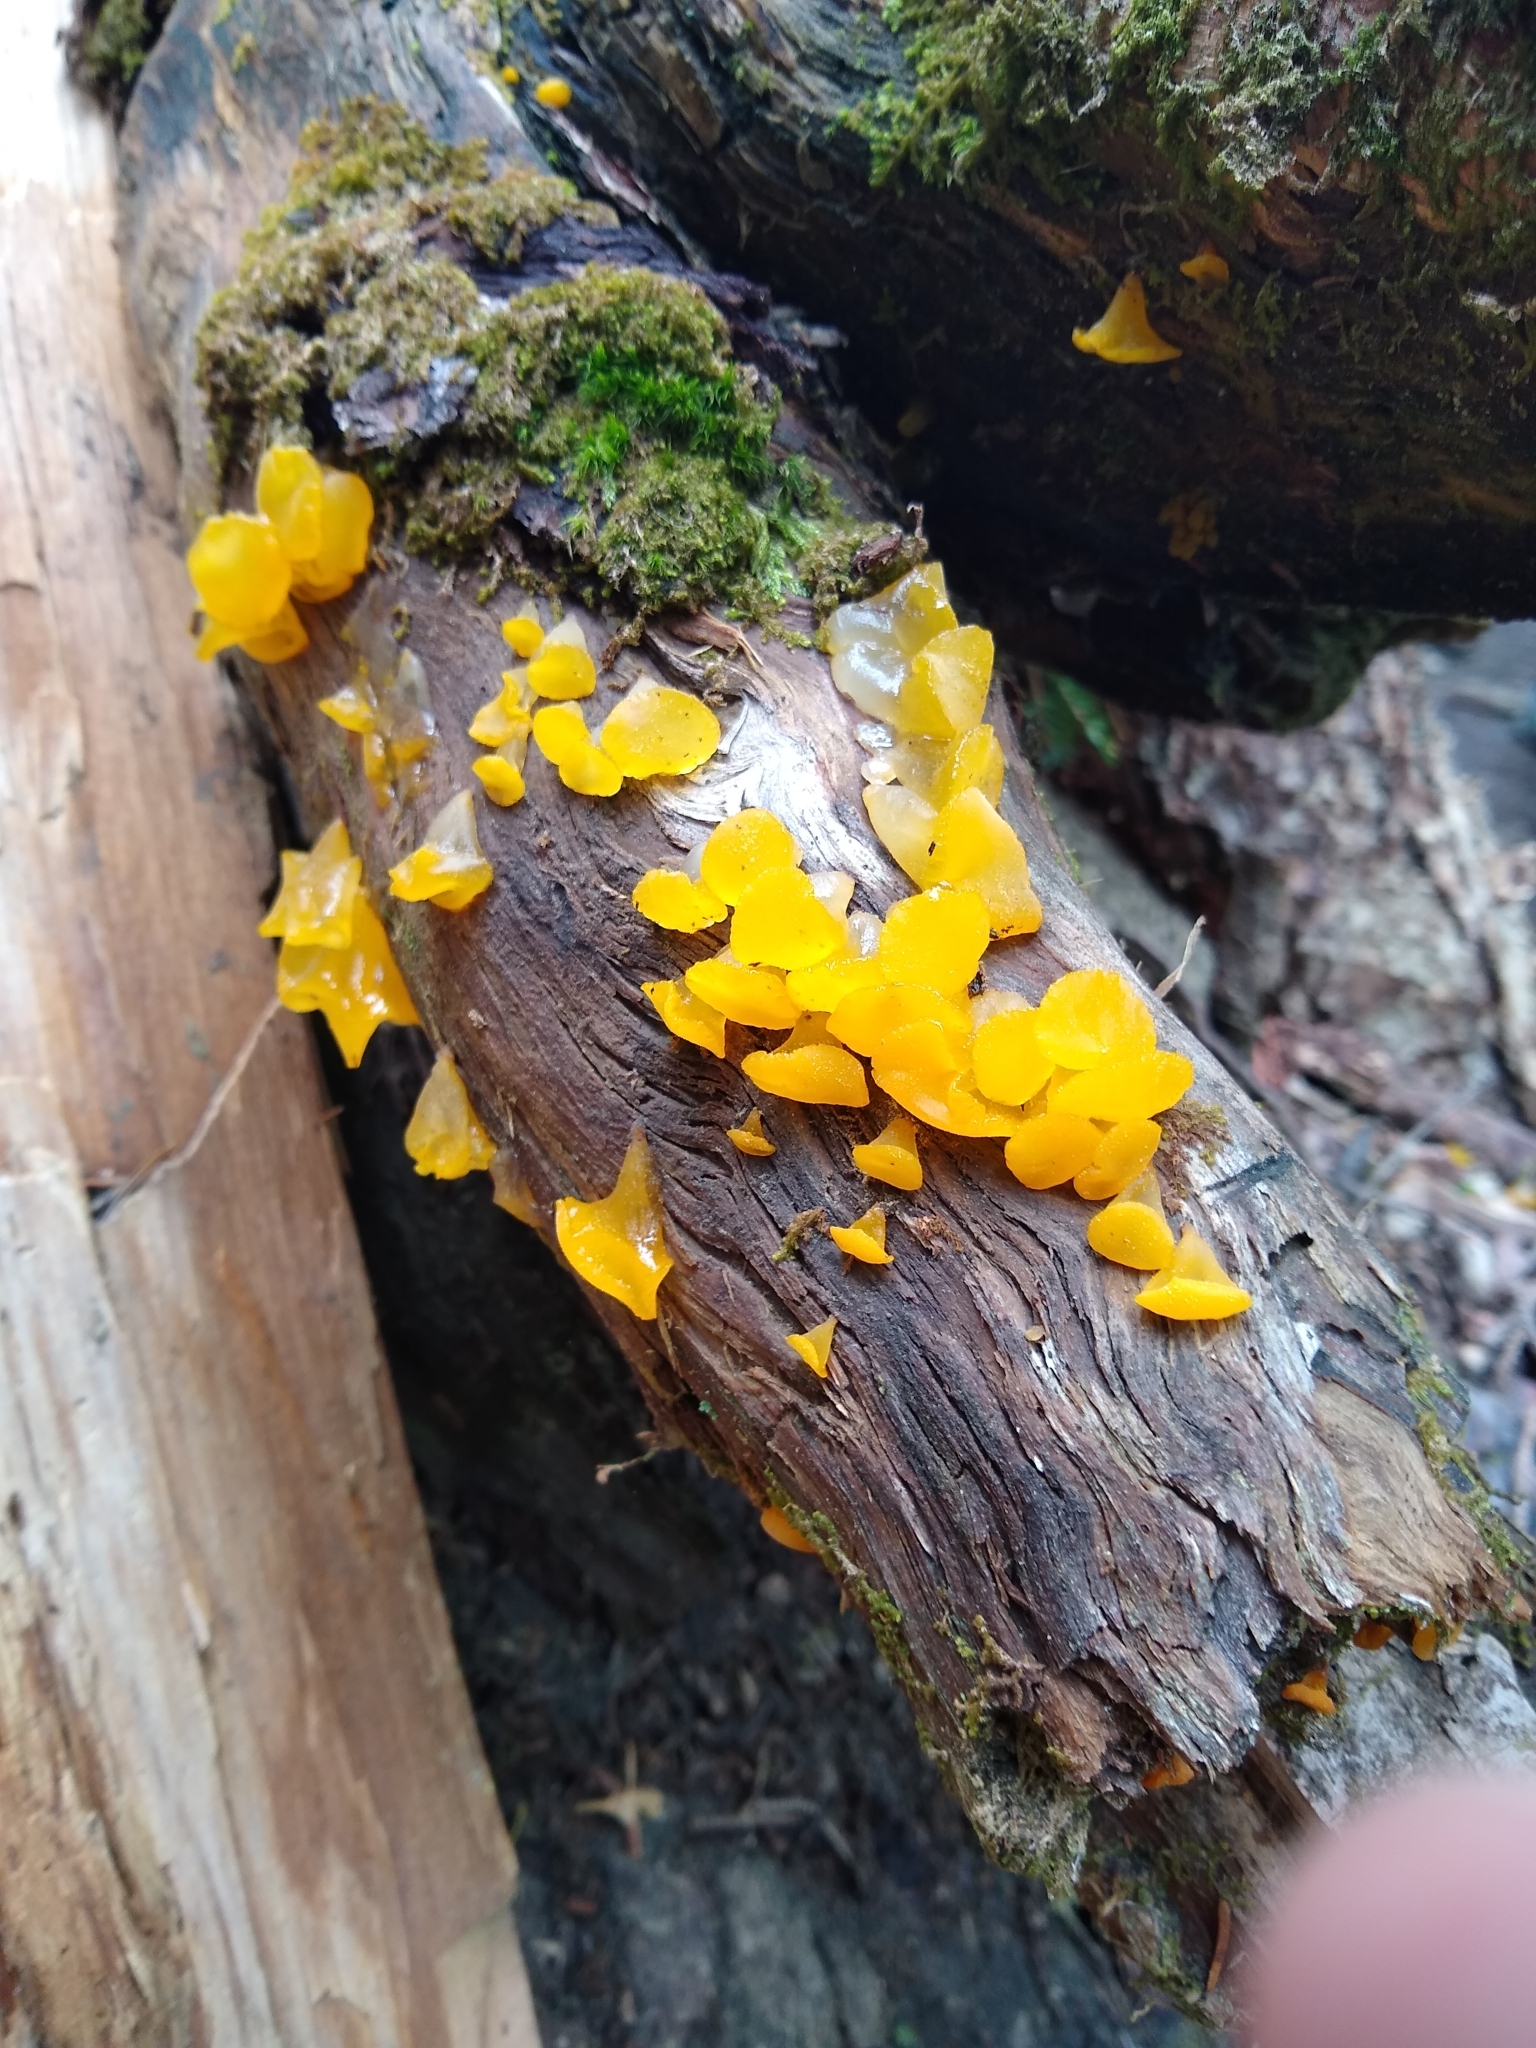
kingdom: Fungi
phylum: Basidiomycota
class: Dacrymycetes
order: Dacrymycetales
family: Dacrymycetaceae
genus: Guepiniopsis
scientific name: Guepiniopsis alpina
